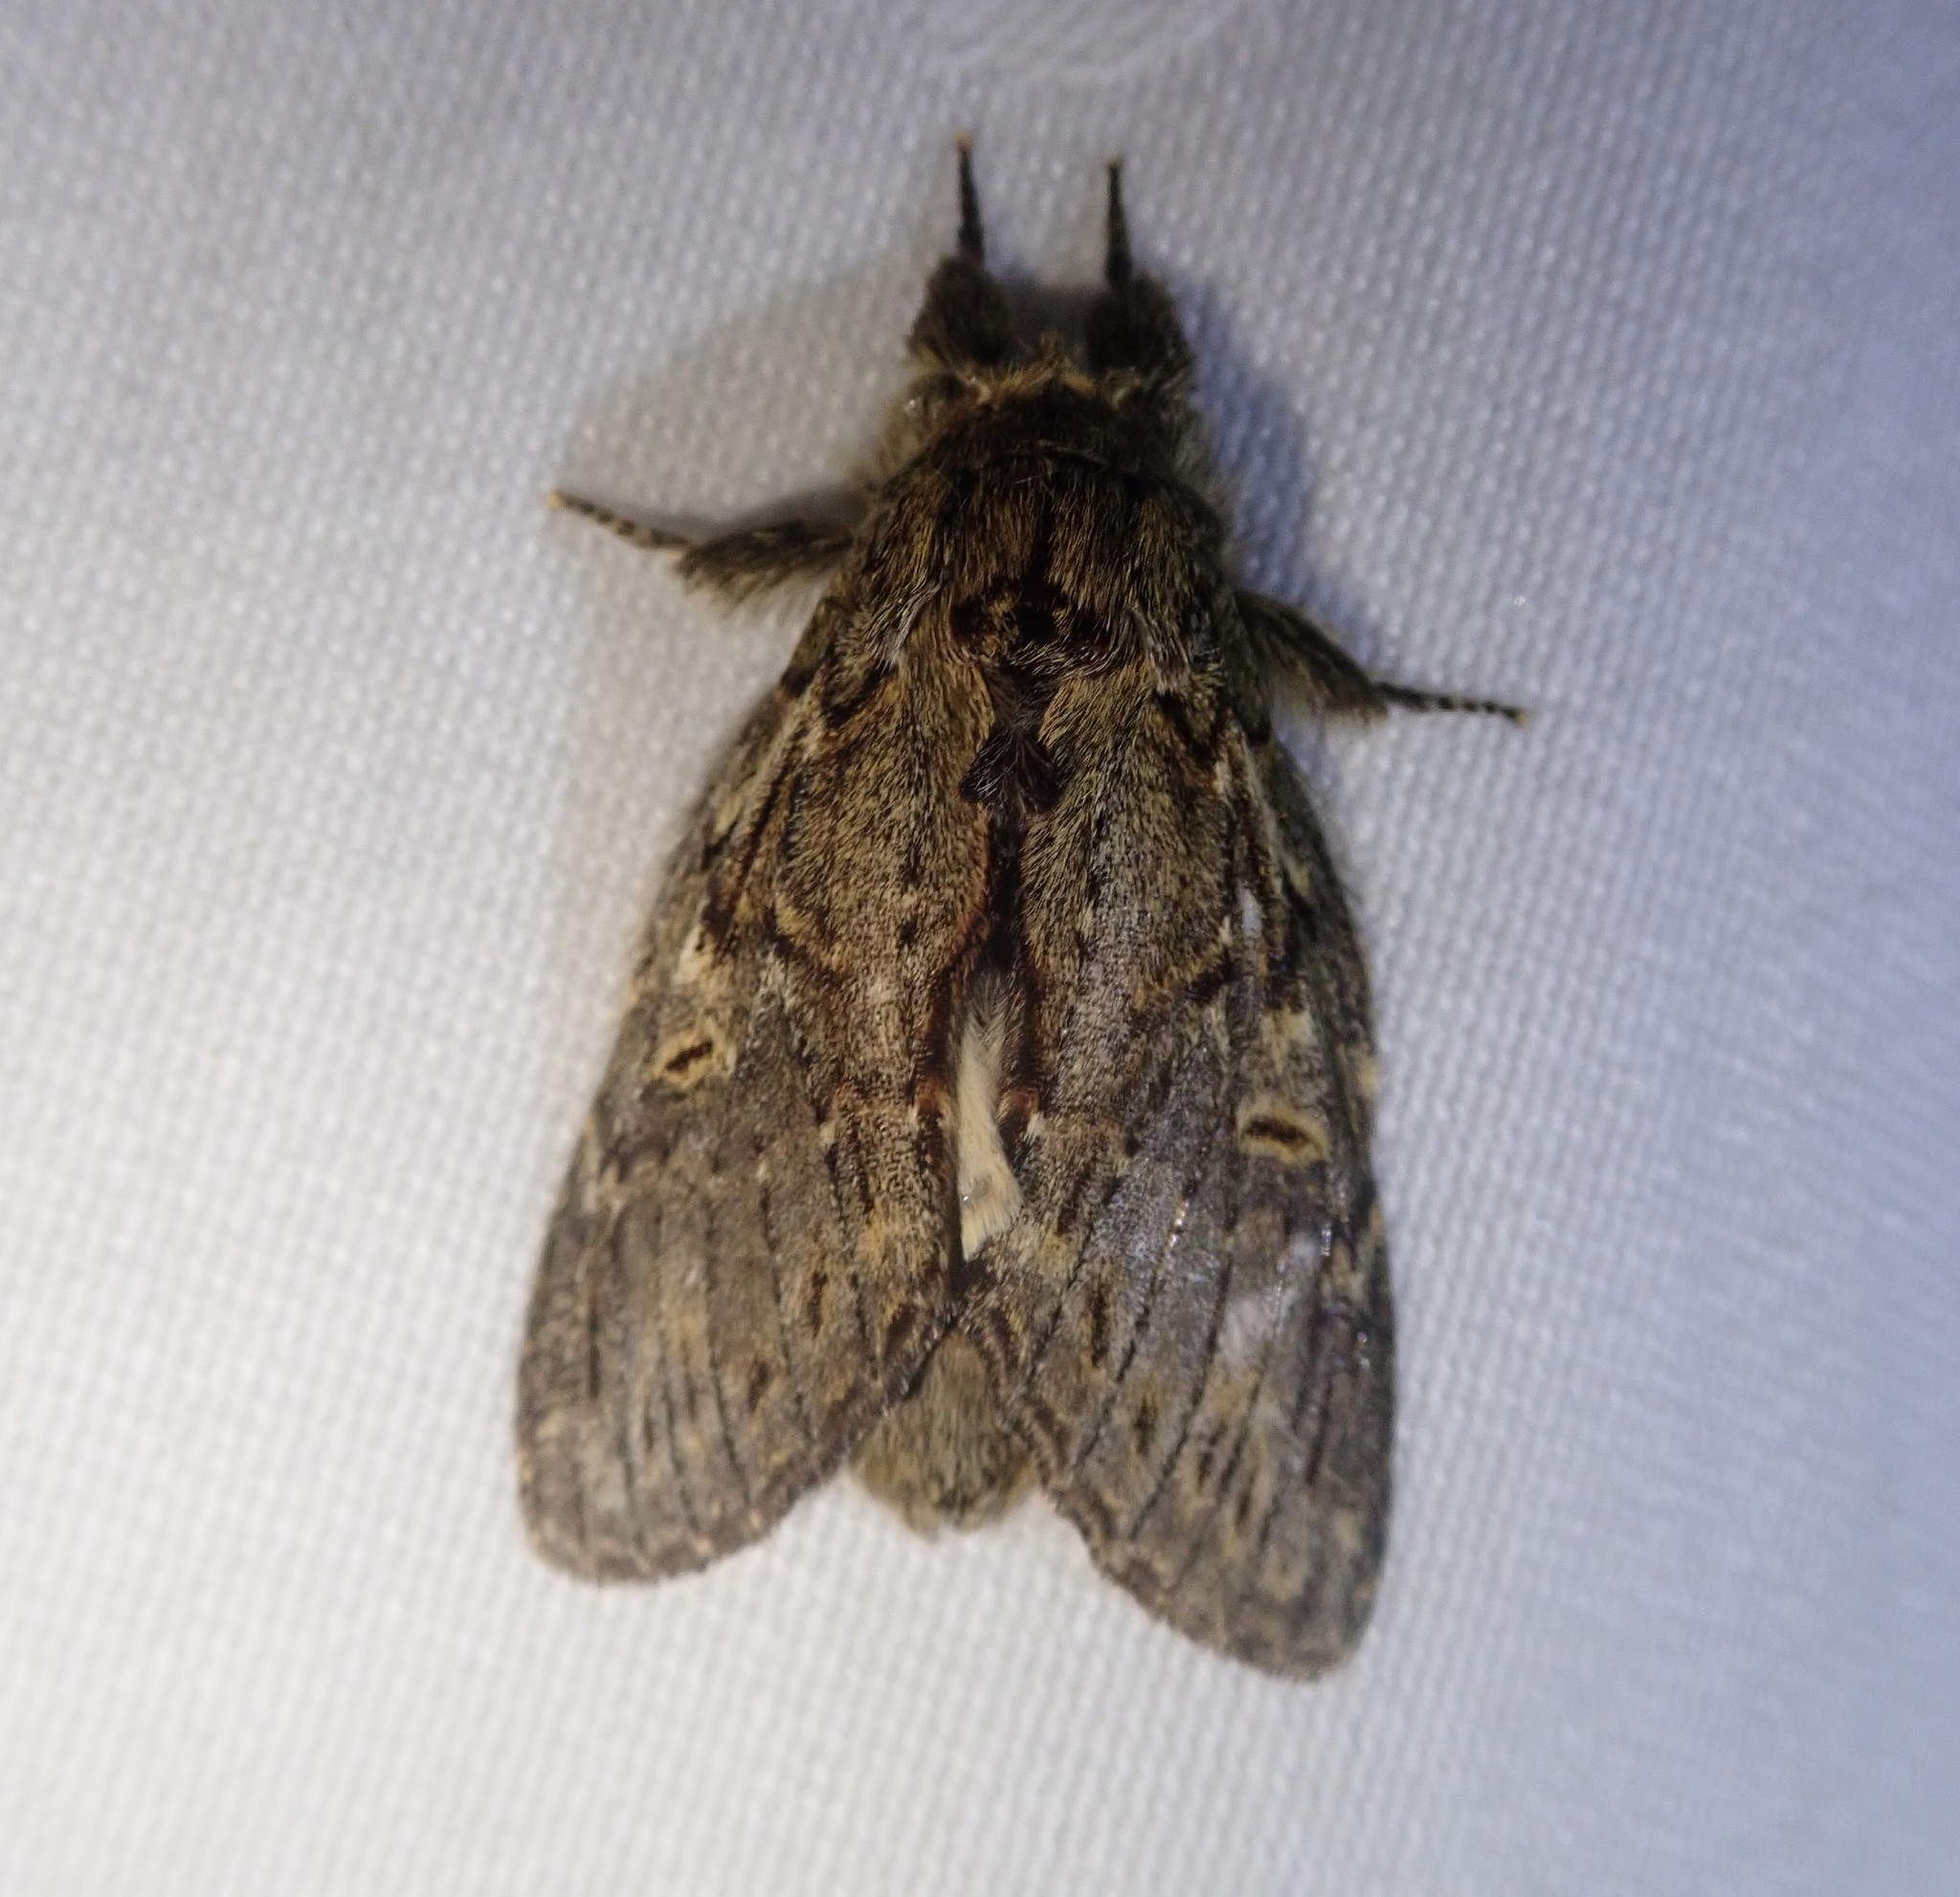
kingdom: Animalia
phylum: Arthropoda
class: Insecta
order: Lepidoptera
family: Notodontidae
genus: Peridea
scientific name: Peridea anceps
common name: Great prominent
